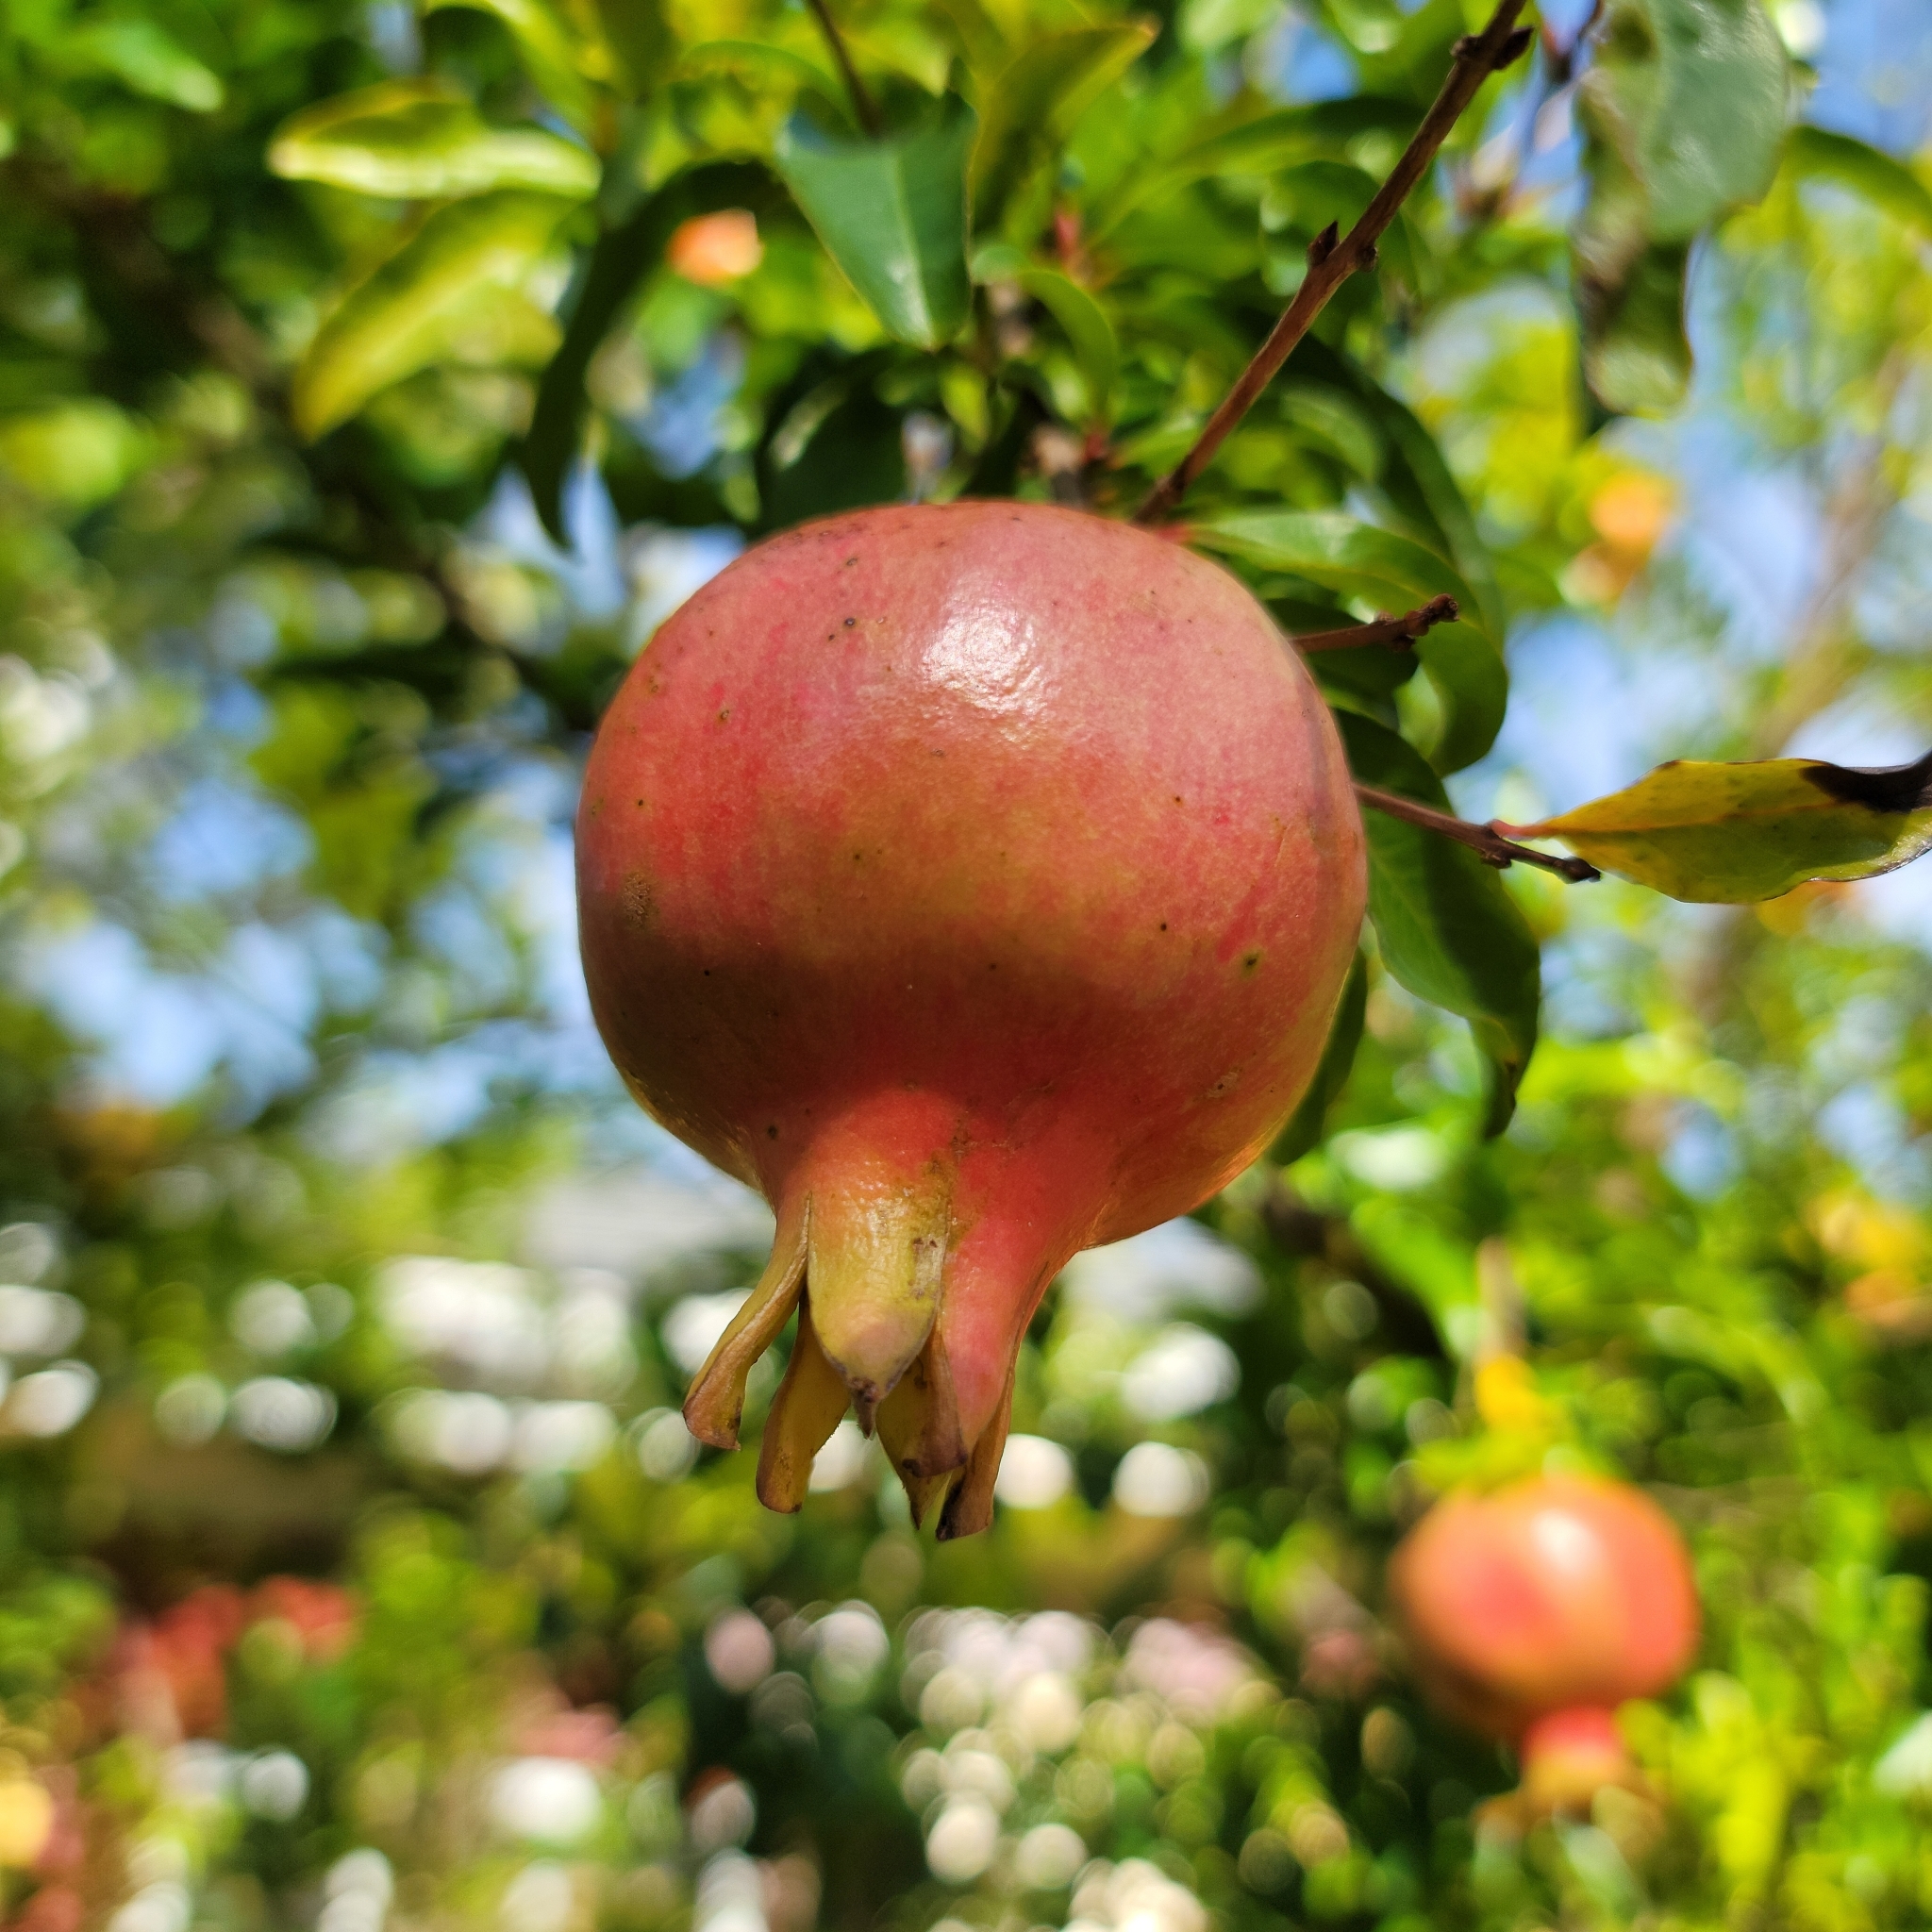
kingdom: Plantae
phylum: Tracheophyta
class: Magnoliopsida
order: Myrtales
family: Lythraceae
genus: Punica
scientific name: Punica granatum
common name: Pomegranate
